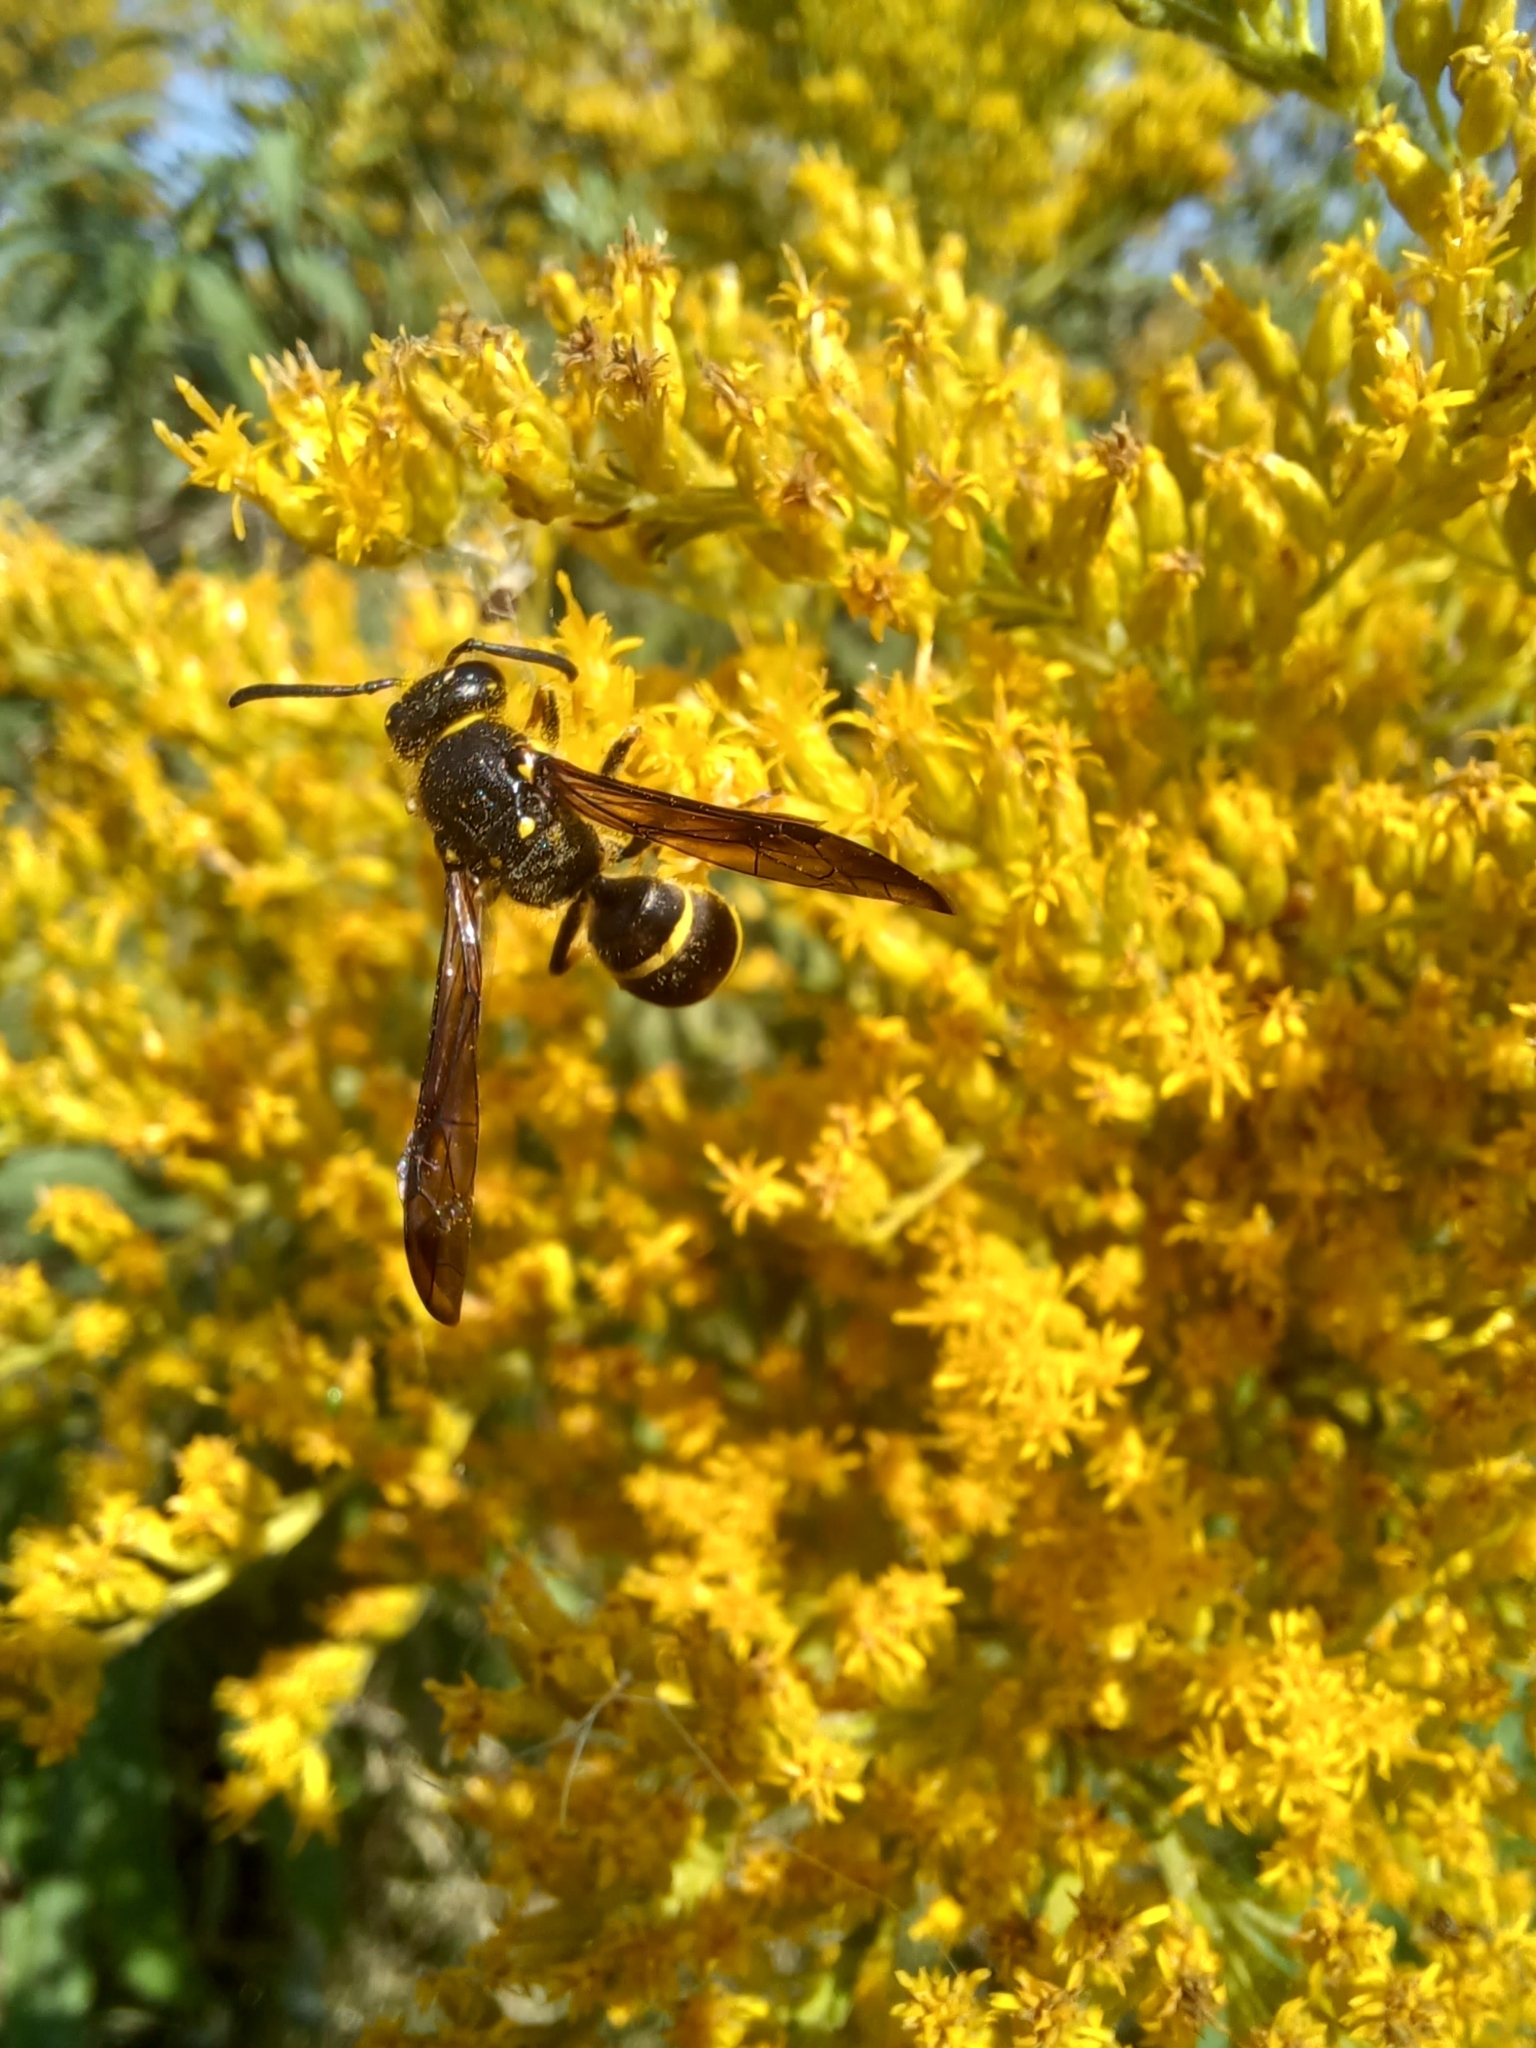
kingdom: Animalia
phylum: Arthropoda
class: Insecta
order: Hymenoptera
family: Vespidae
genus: Ancistrocerus
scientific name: Ancistrocerus
